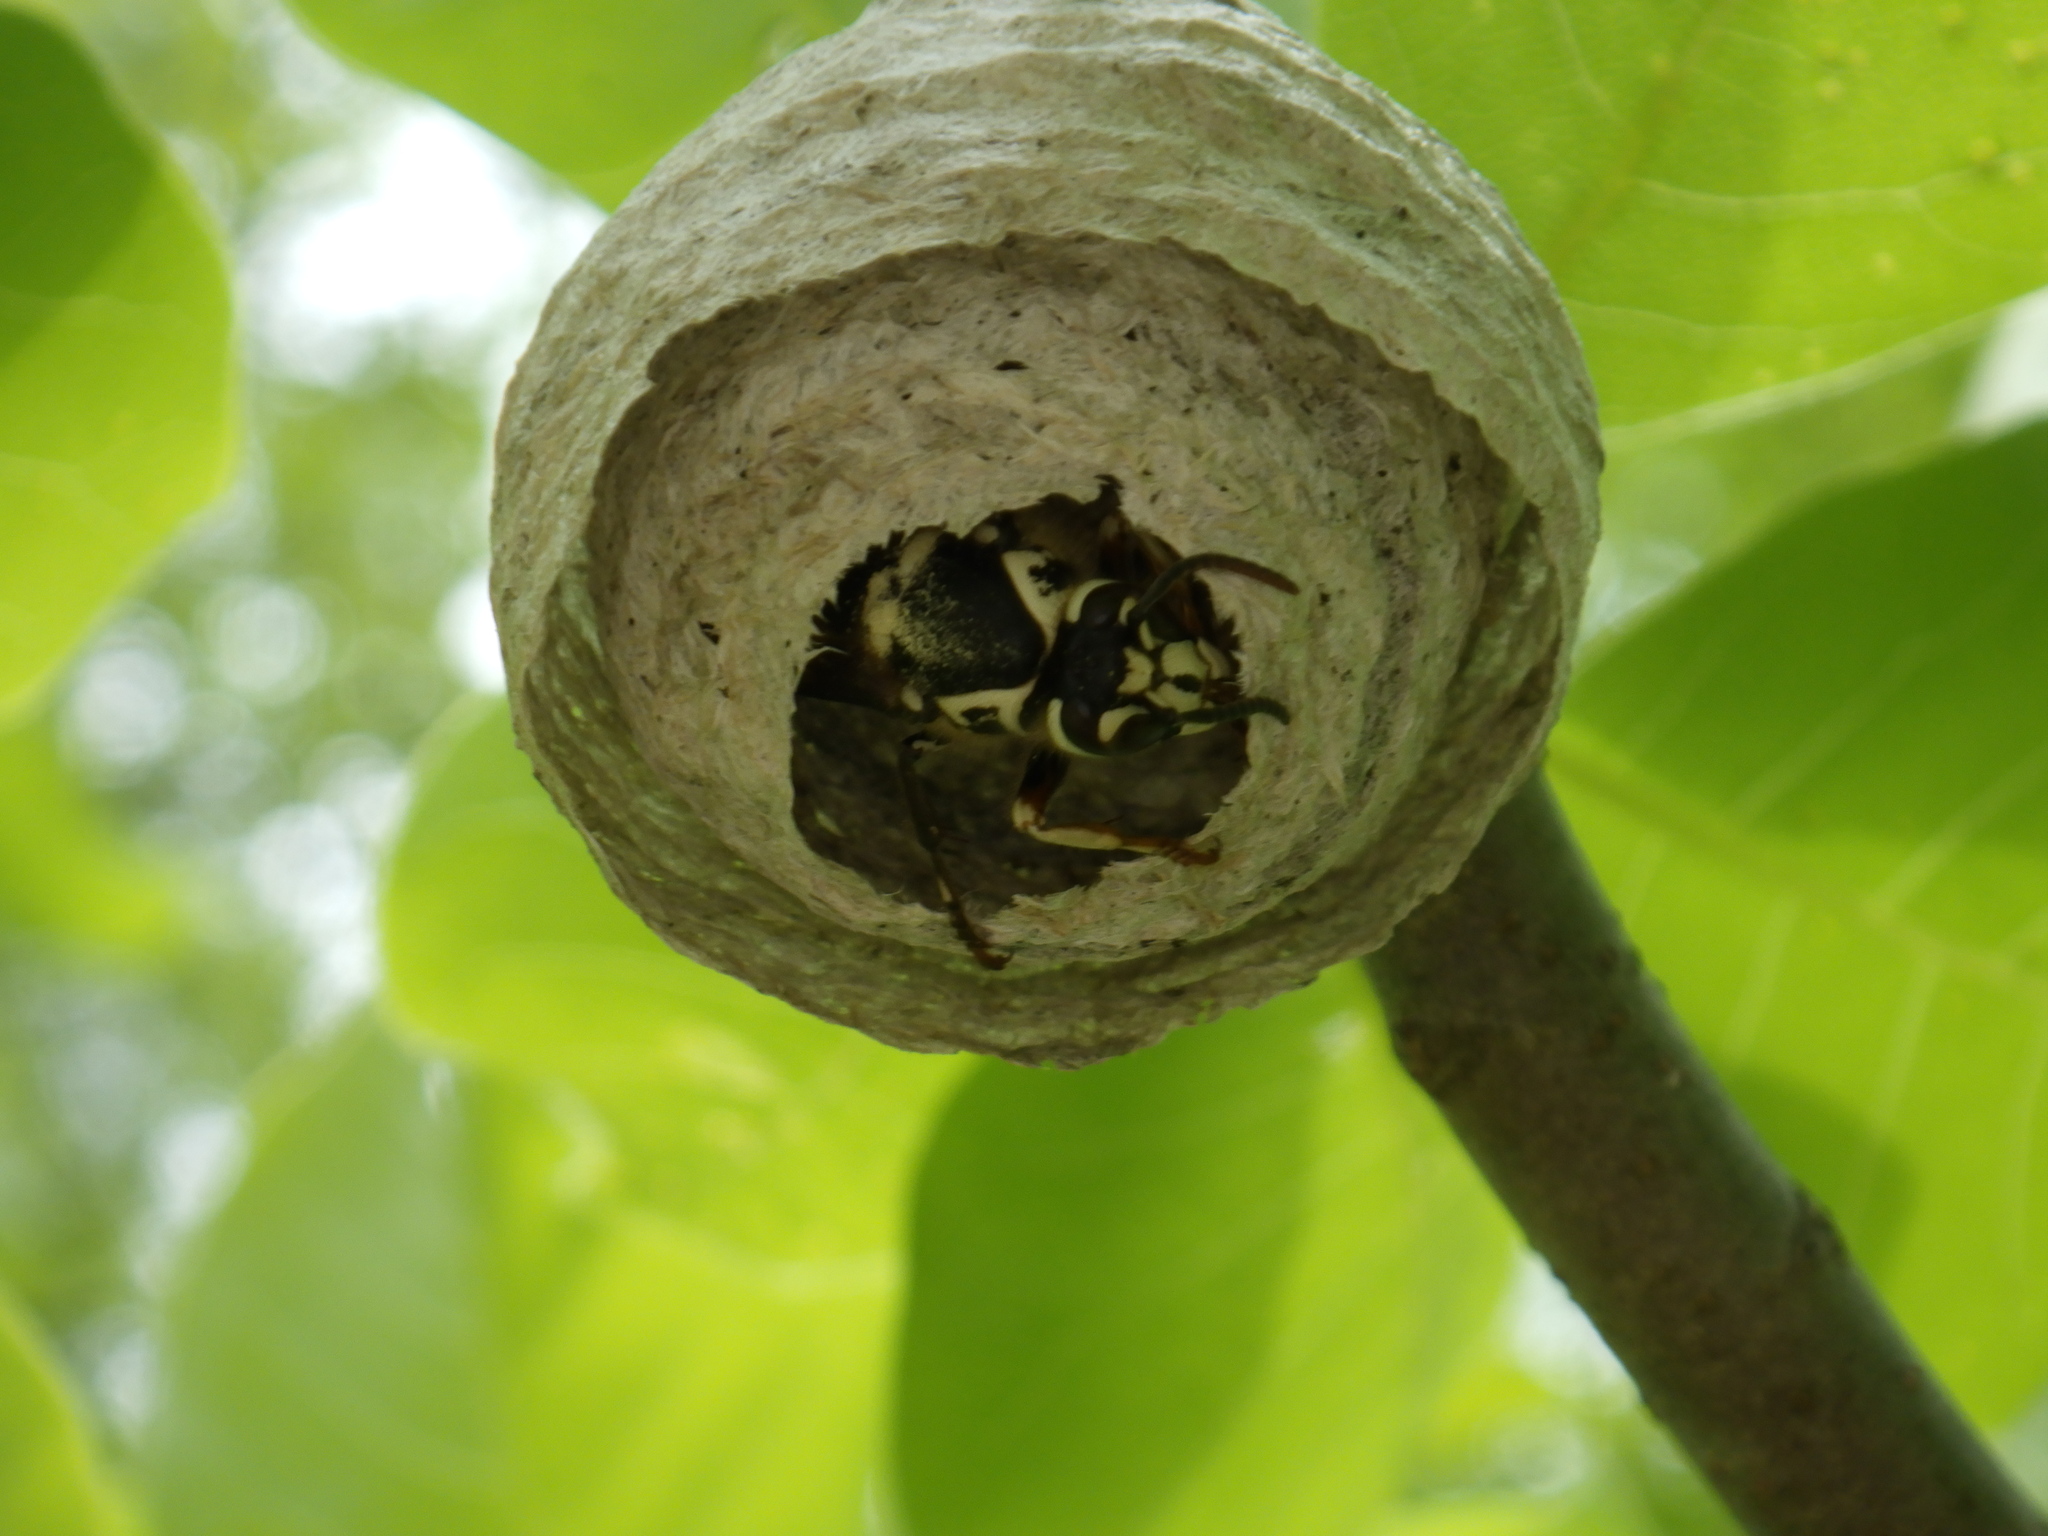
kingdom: Animalia
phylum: Arthropoda
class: Insecta
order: Hymenoptera
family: Vespidae
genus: Dolichovespula
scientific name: Dolichovespula maculata
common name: Bald-faced hornet
